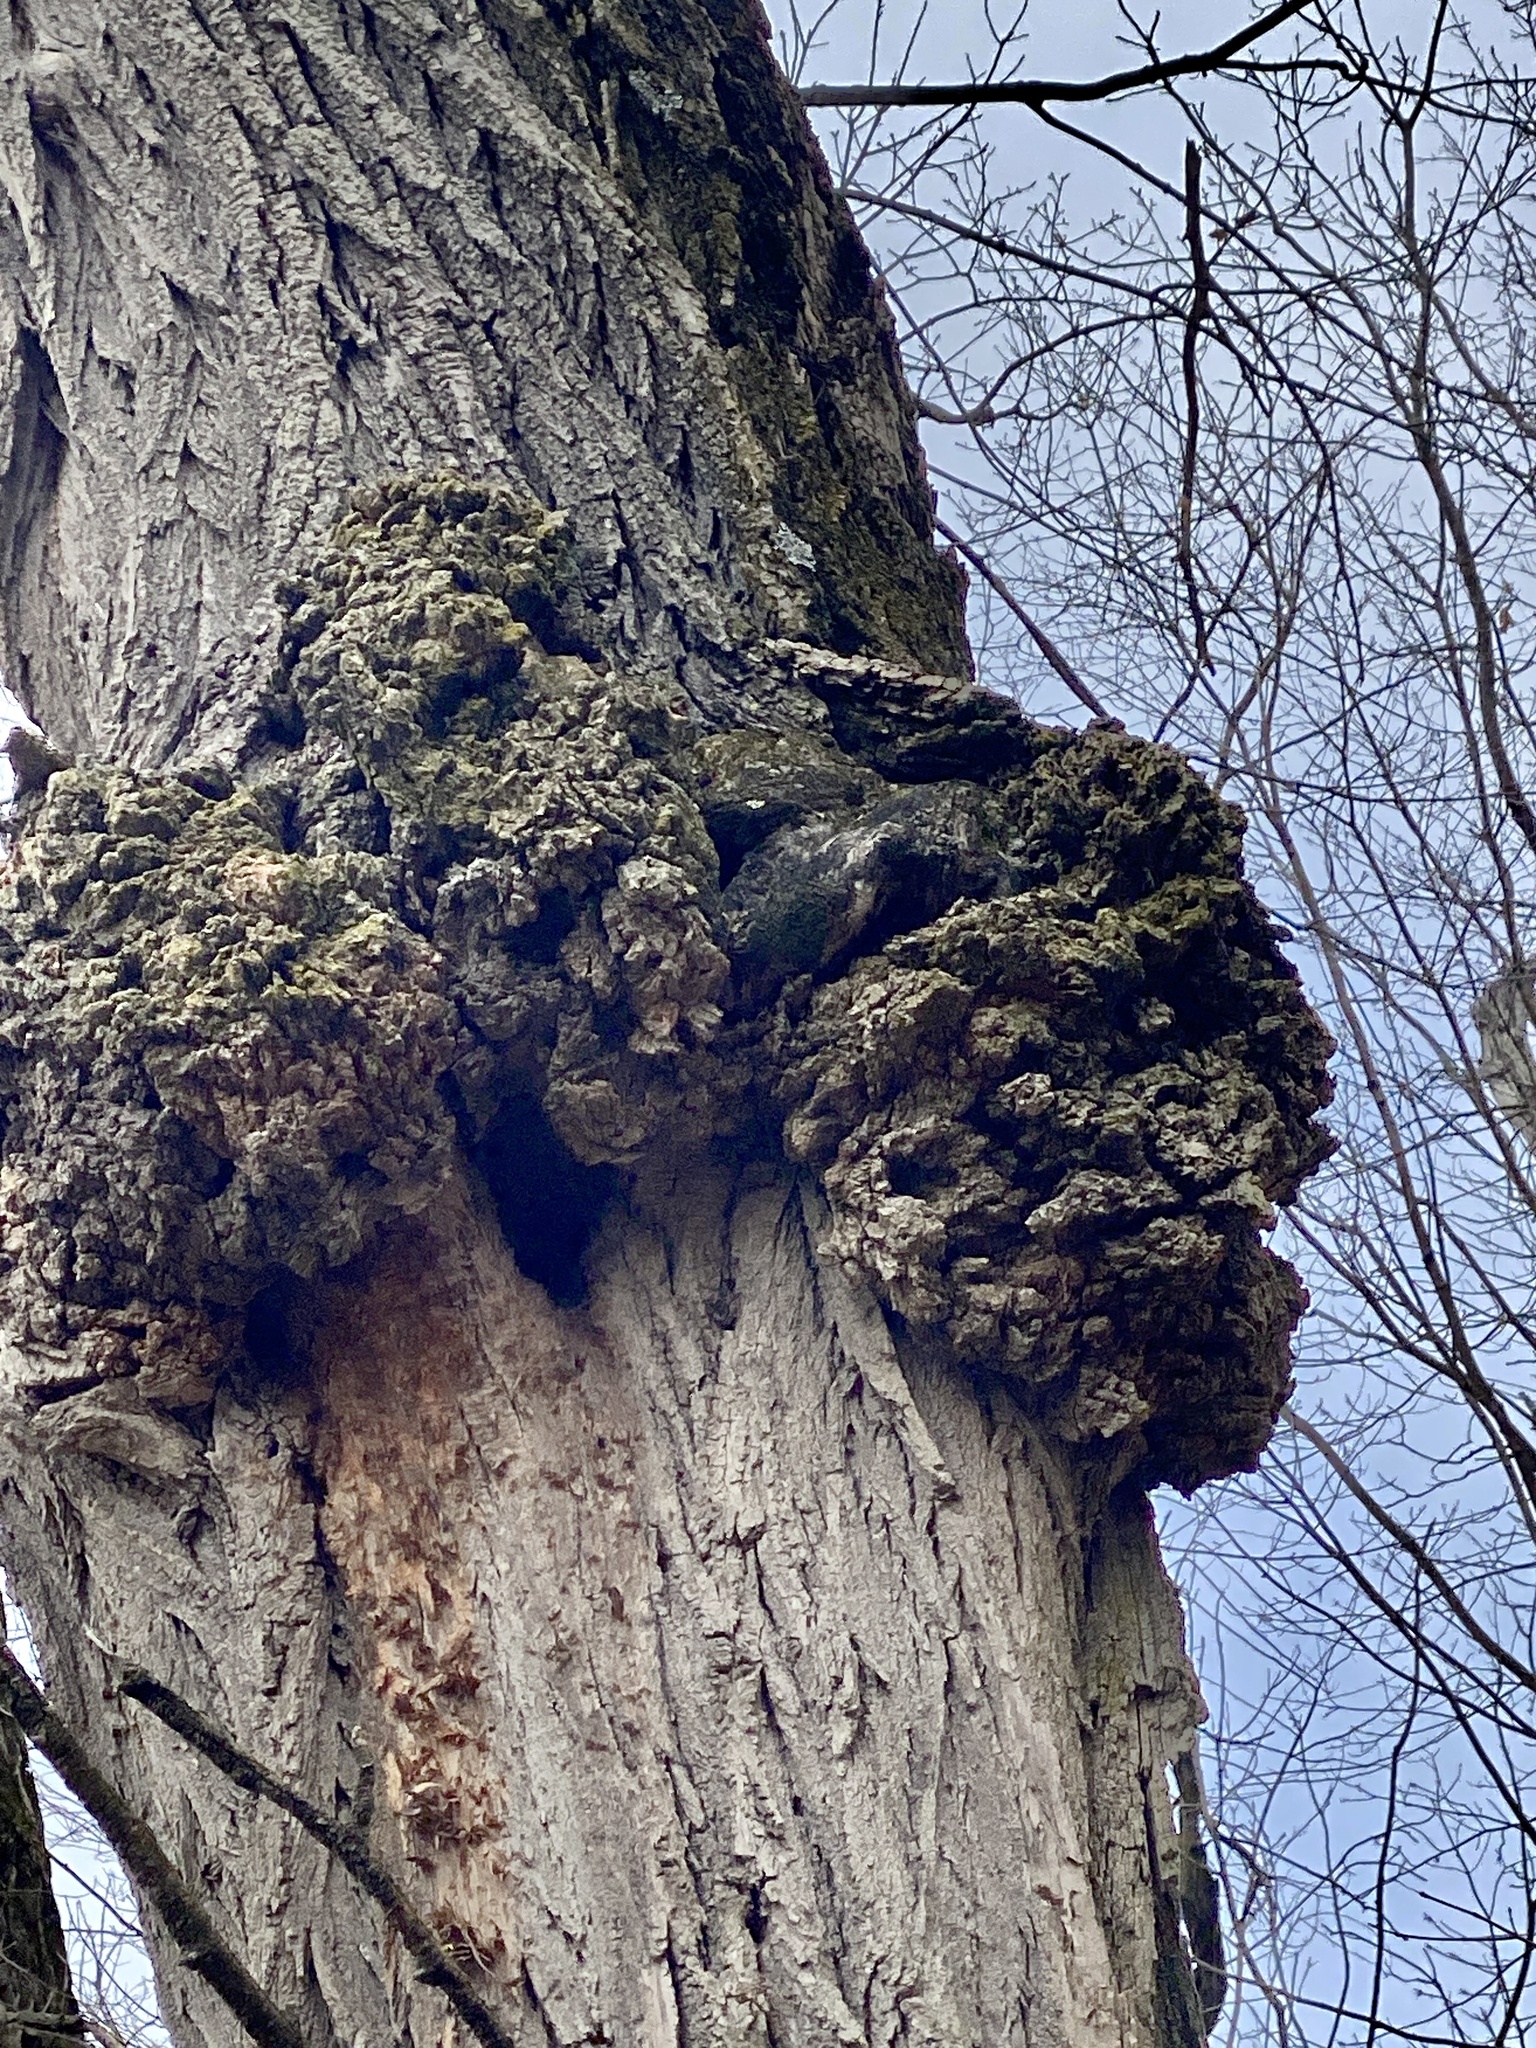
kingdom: Bacteria
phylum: Proteobacteria
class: Alphaproteobacteria
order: Rhizobiales
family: Rhizobiaceae
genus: Rhizobium
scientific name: Rhizobium Agrobacterium radiobacter
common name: Bacterial crown gall
